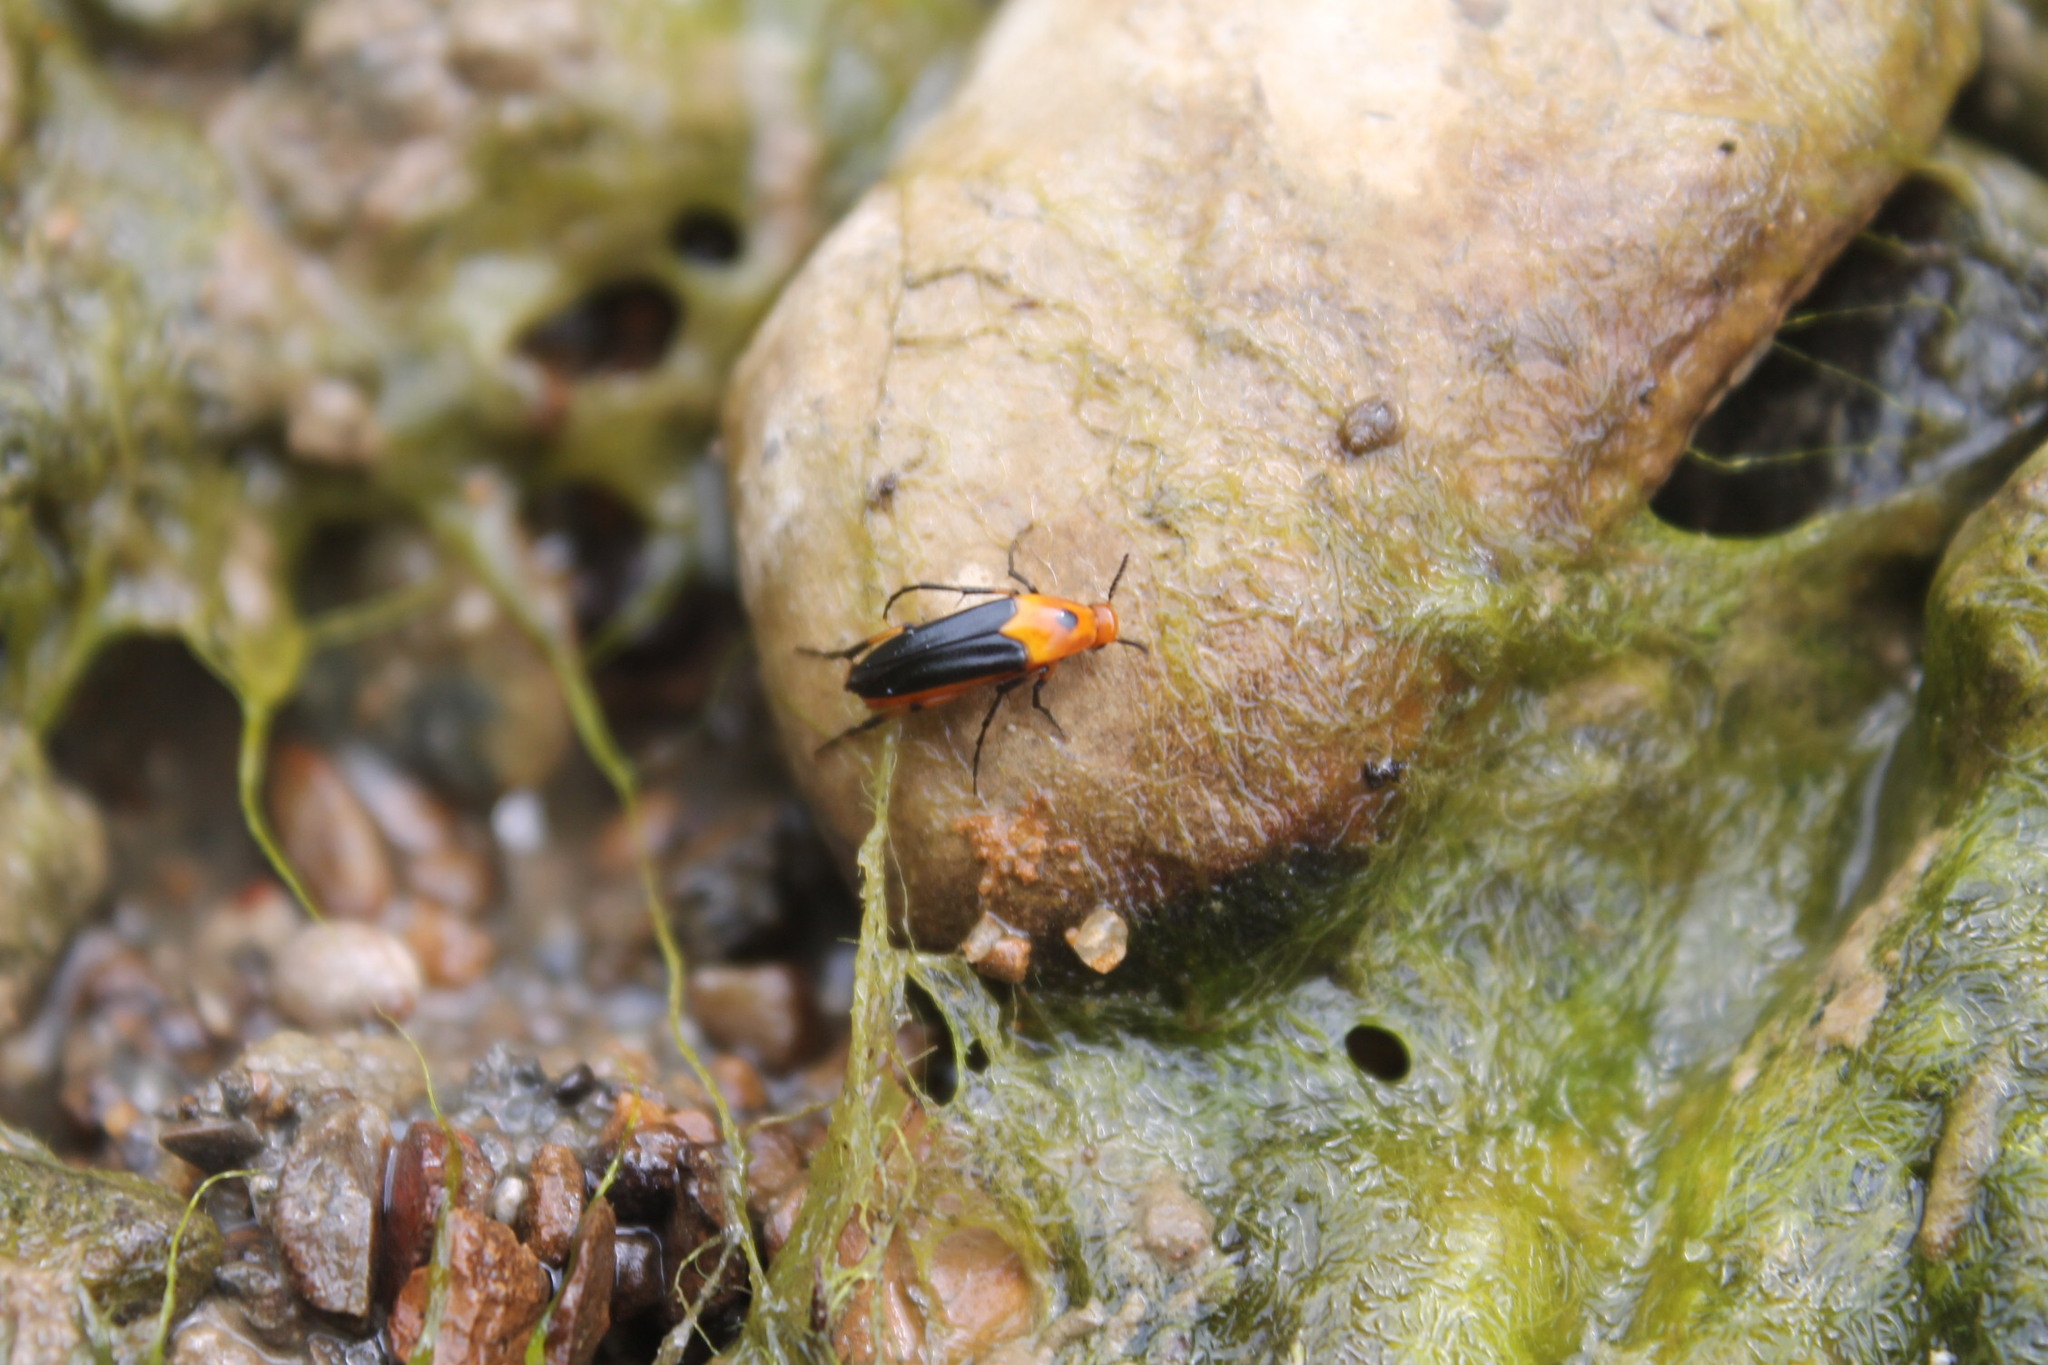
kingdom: Animalia
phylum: Arthropoda
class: Insecta
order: Coleoptera
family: Ripiphoridae
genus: Macrosiagon
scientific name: Macrosiagon limbatum
